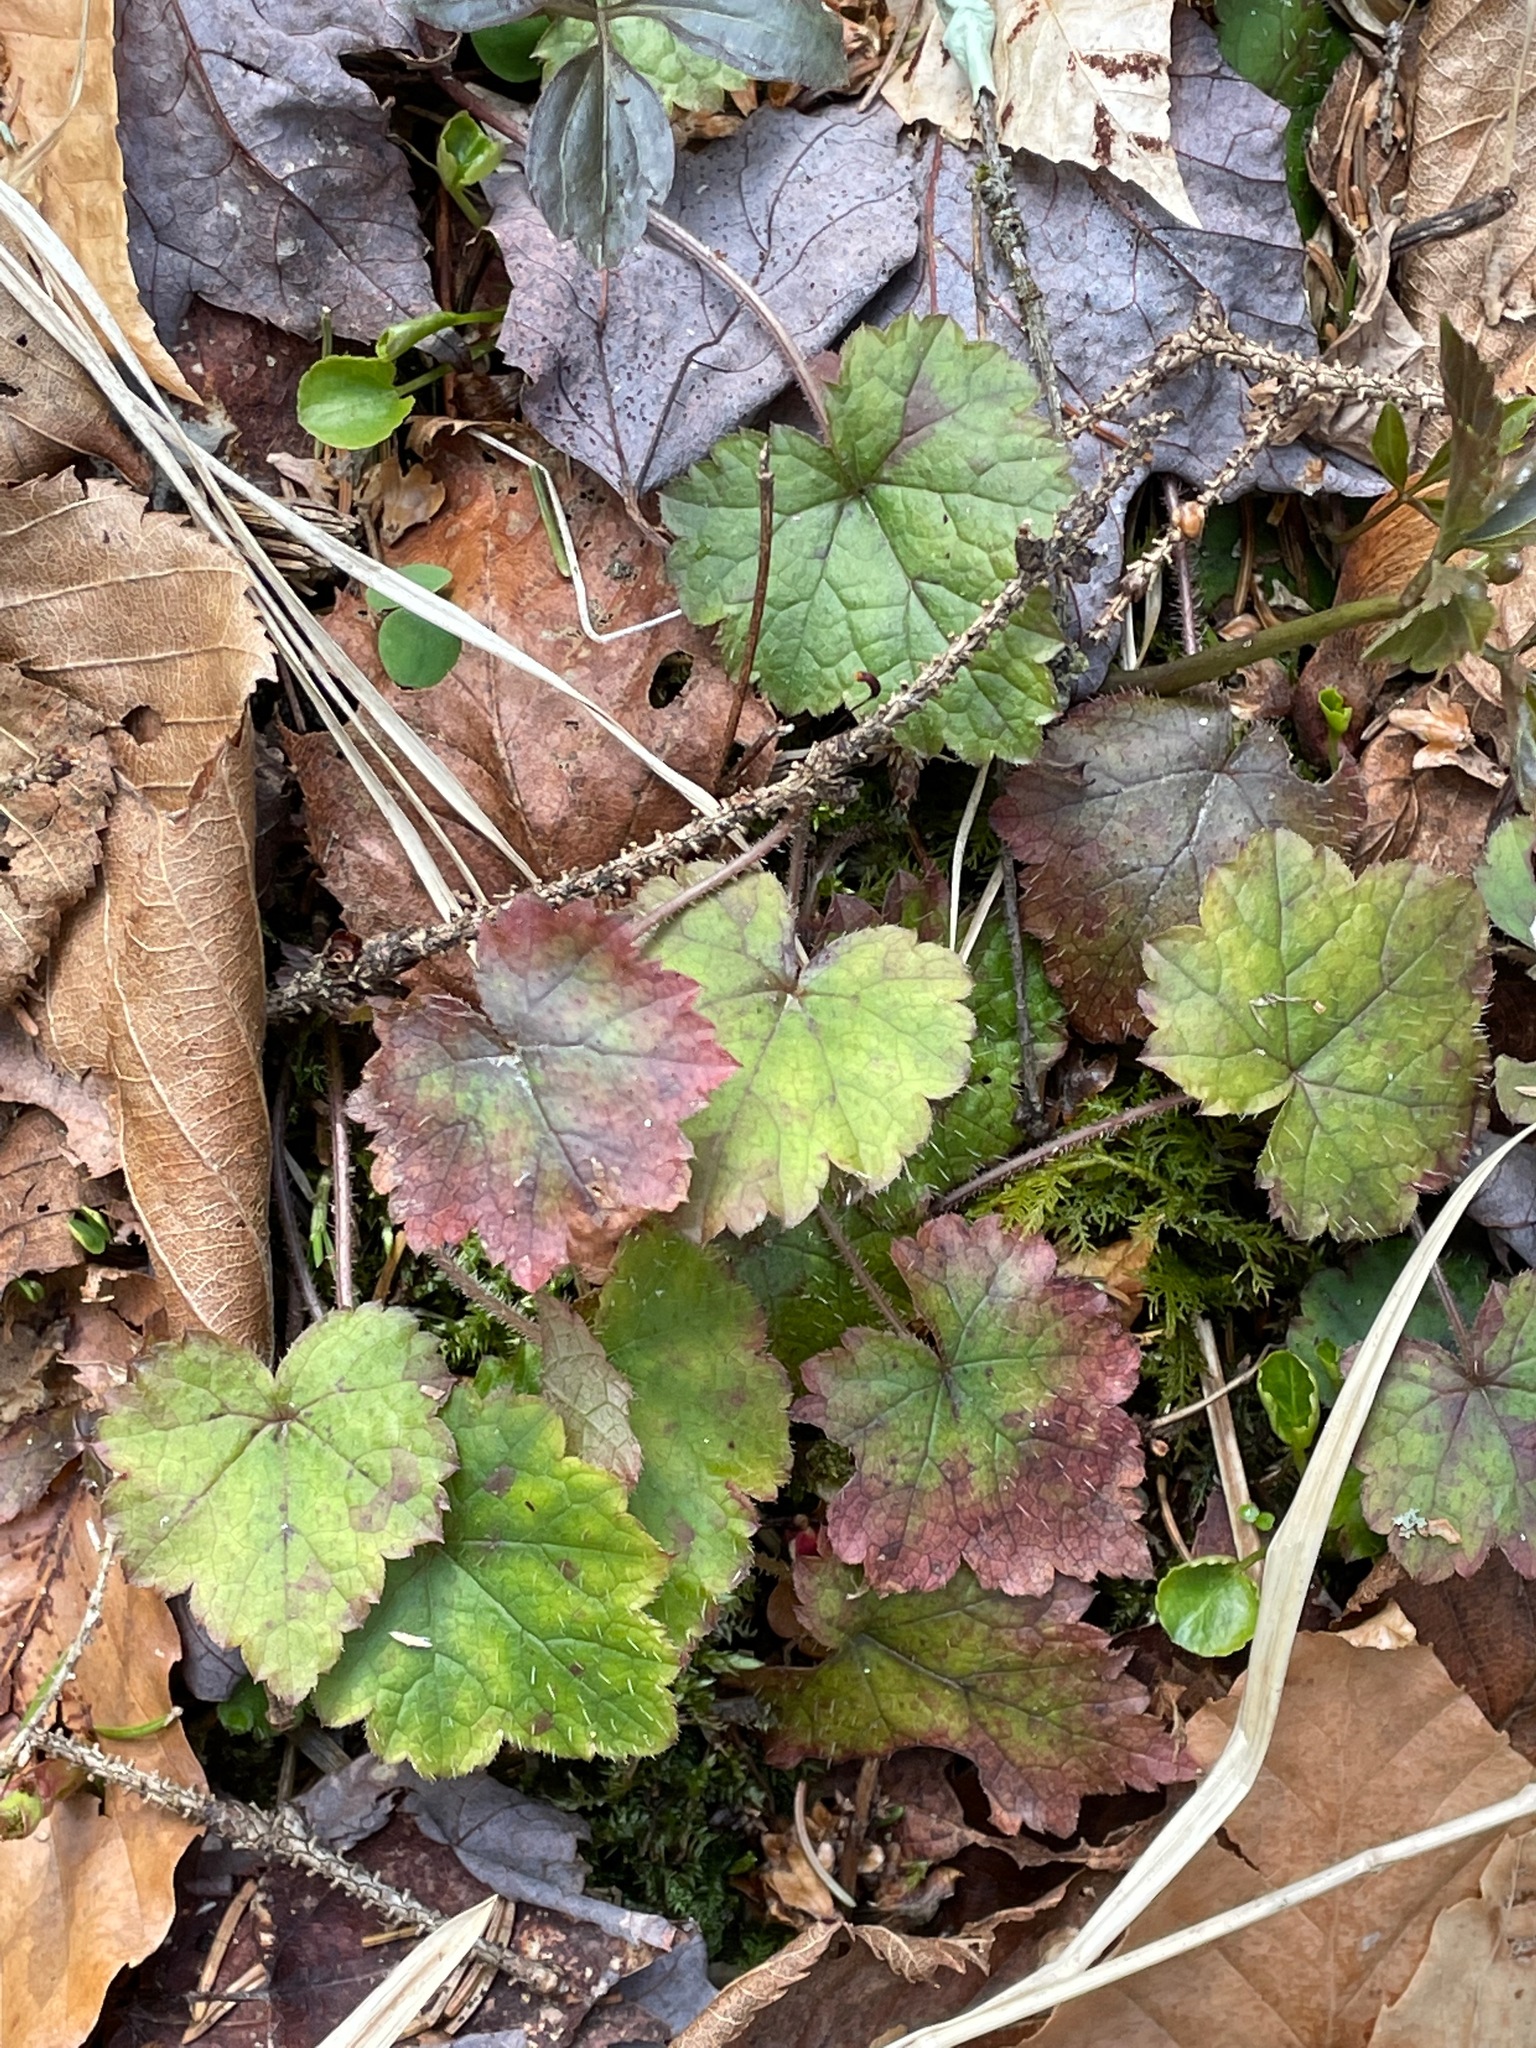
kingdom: Plantae
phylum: Tracheophyta
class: Magnoliopsida
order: Saxifragales
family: Saxifragaceae
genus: Tiarella
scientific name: Tiarella stolonifera
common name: Stoloniferous foamflower
